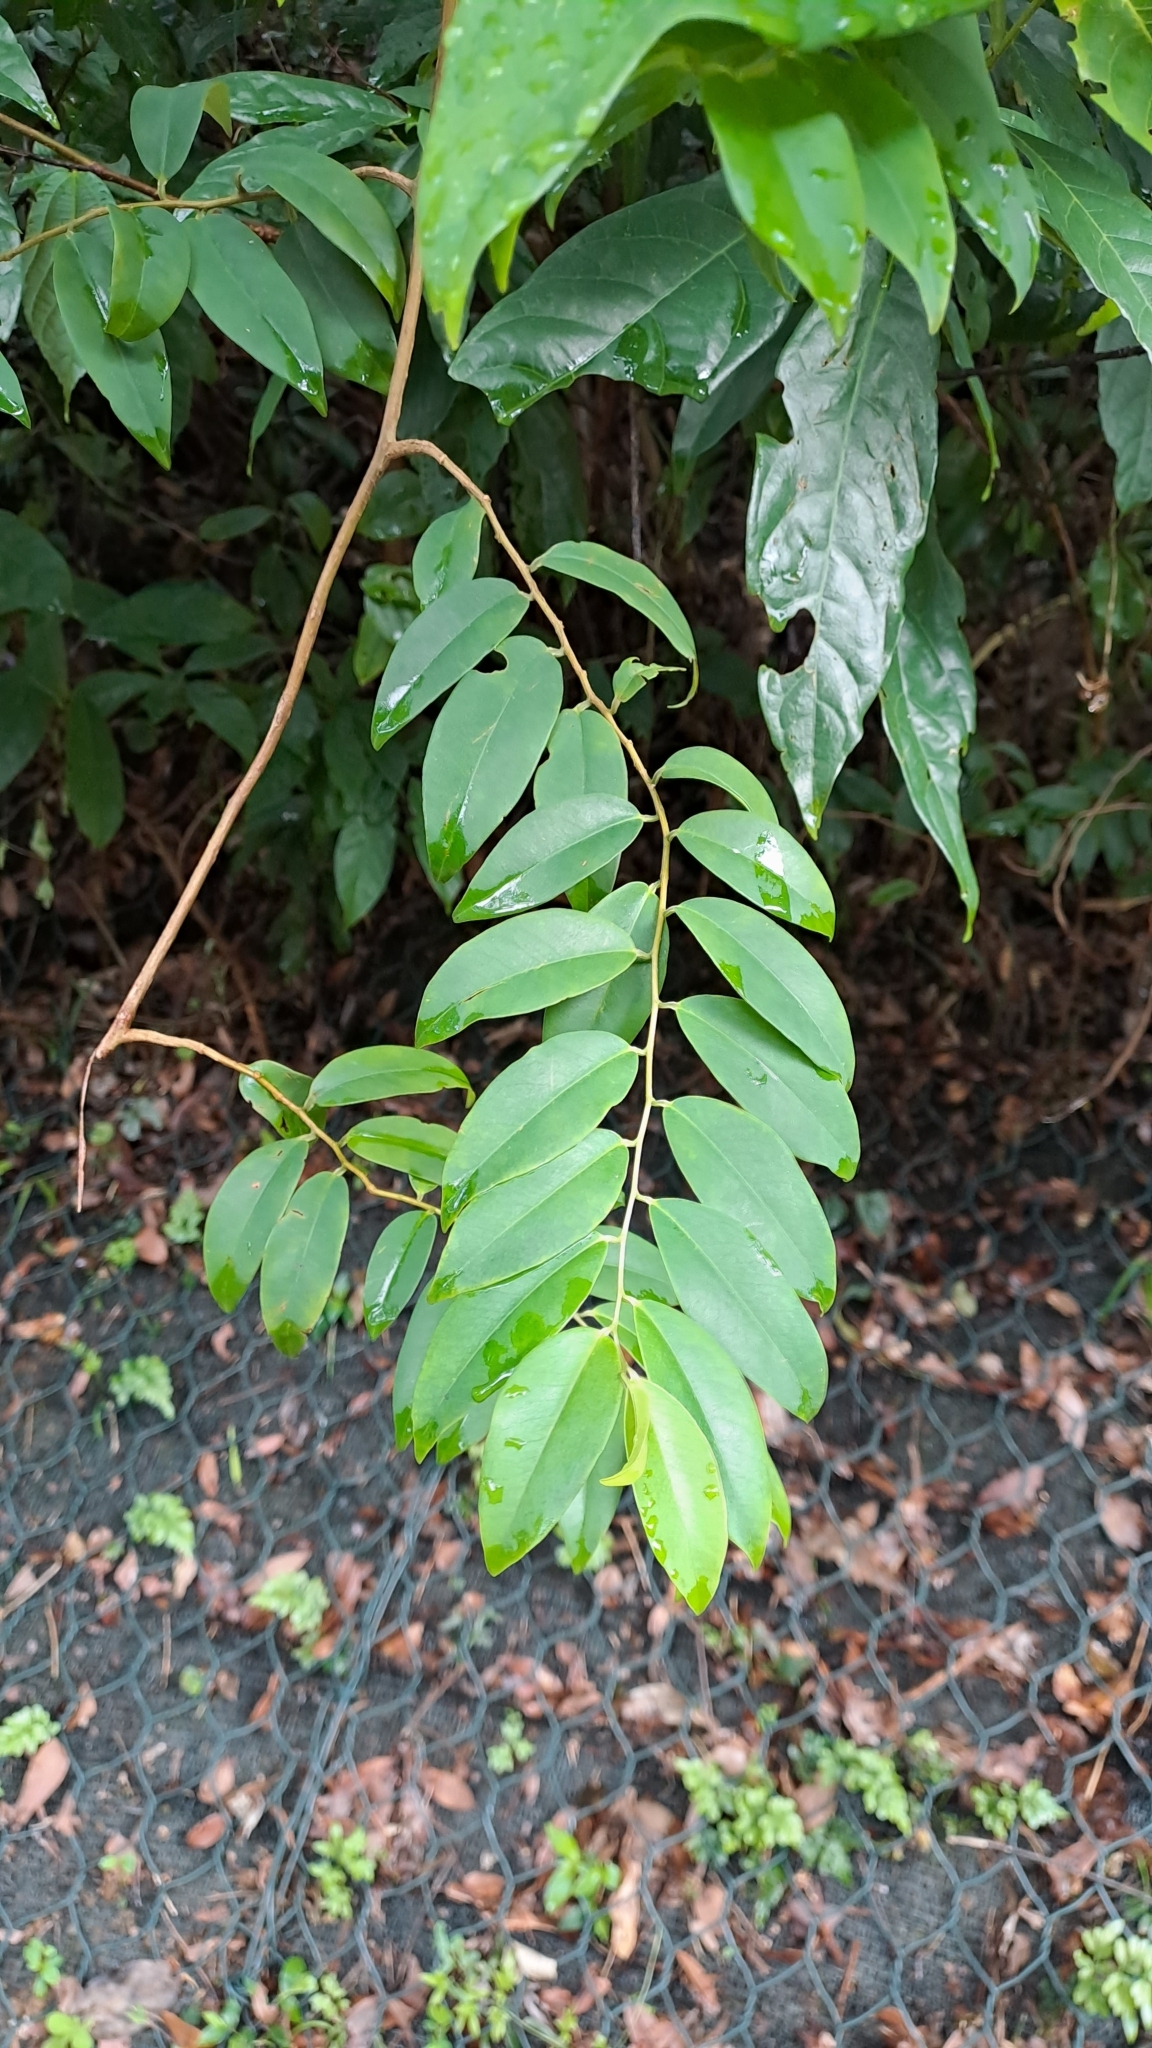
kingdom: Plantae
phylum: Tracheophyta
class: Magnoliopsida
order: Ericales
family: Primulaceae
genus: Embelia
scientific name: Embelia ribes
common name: Vidanga
